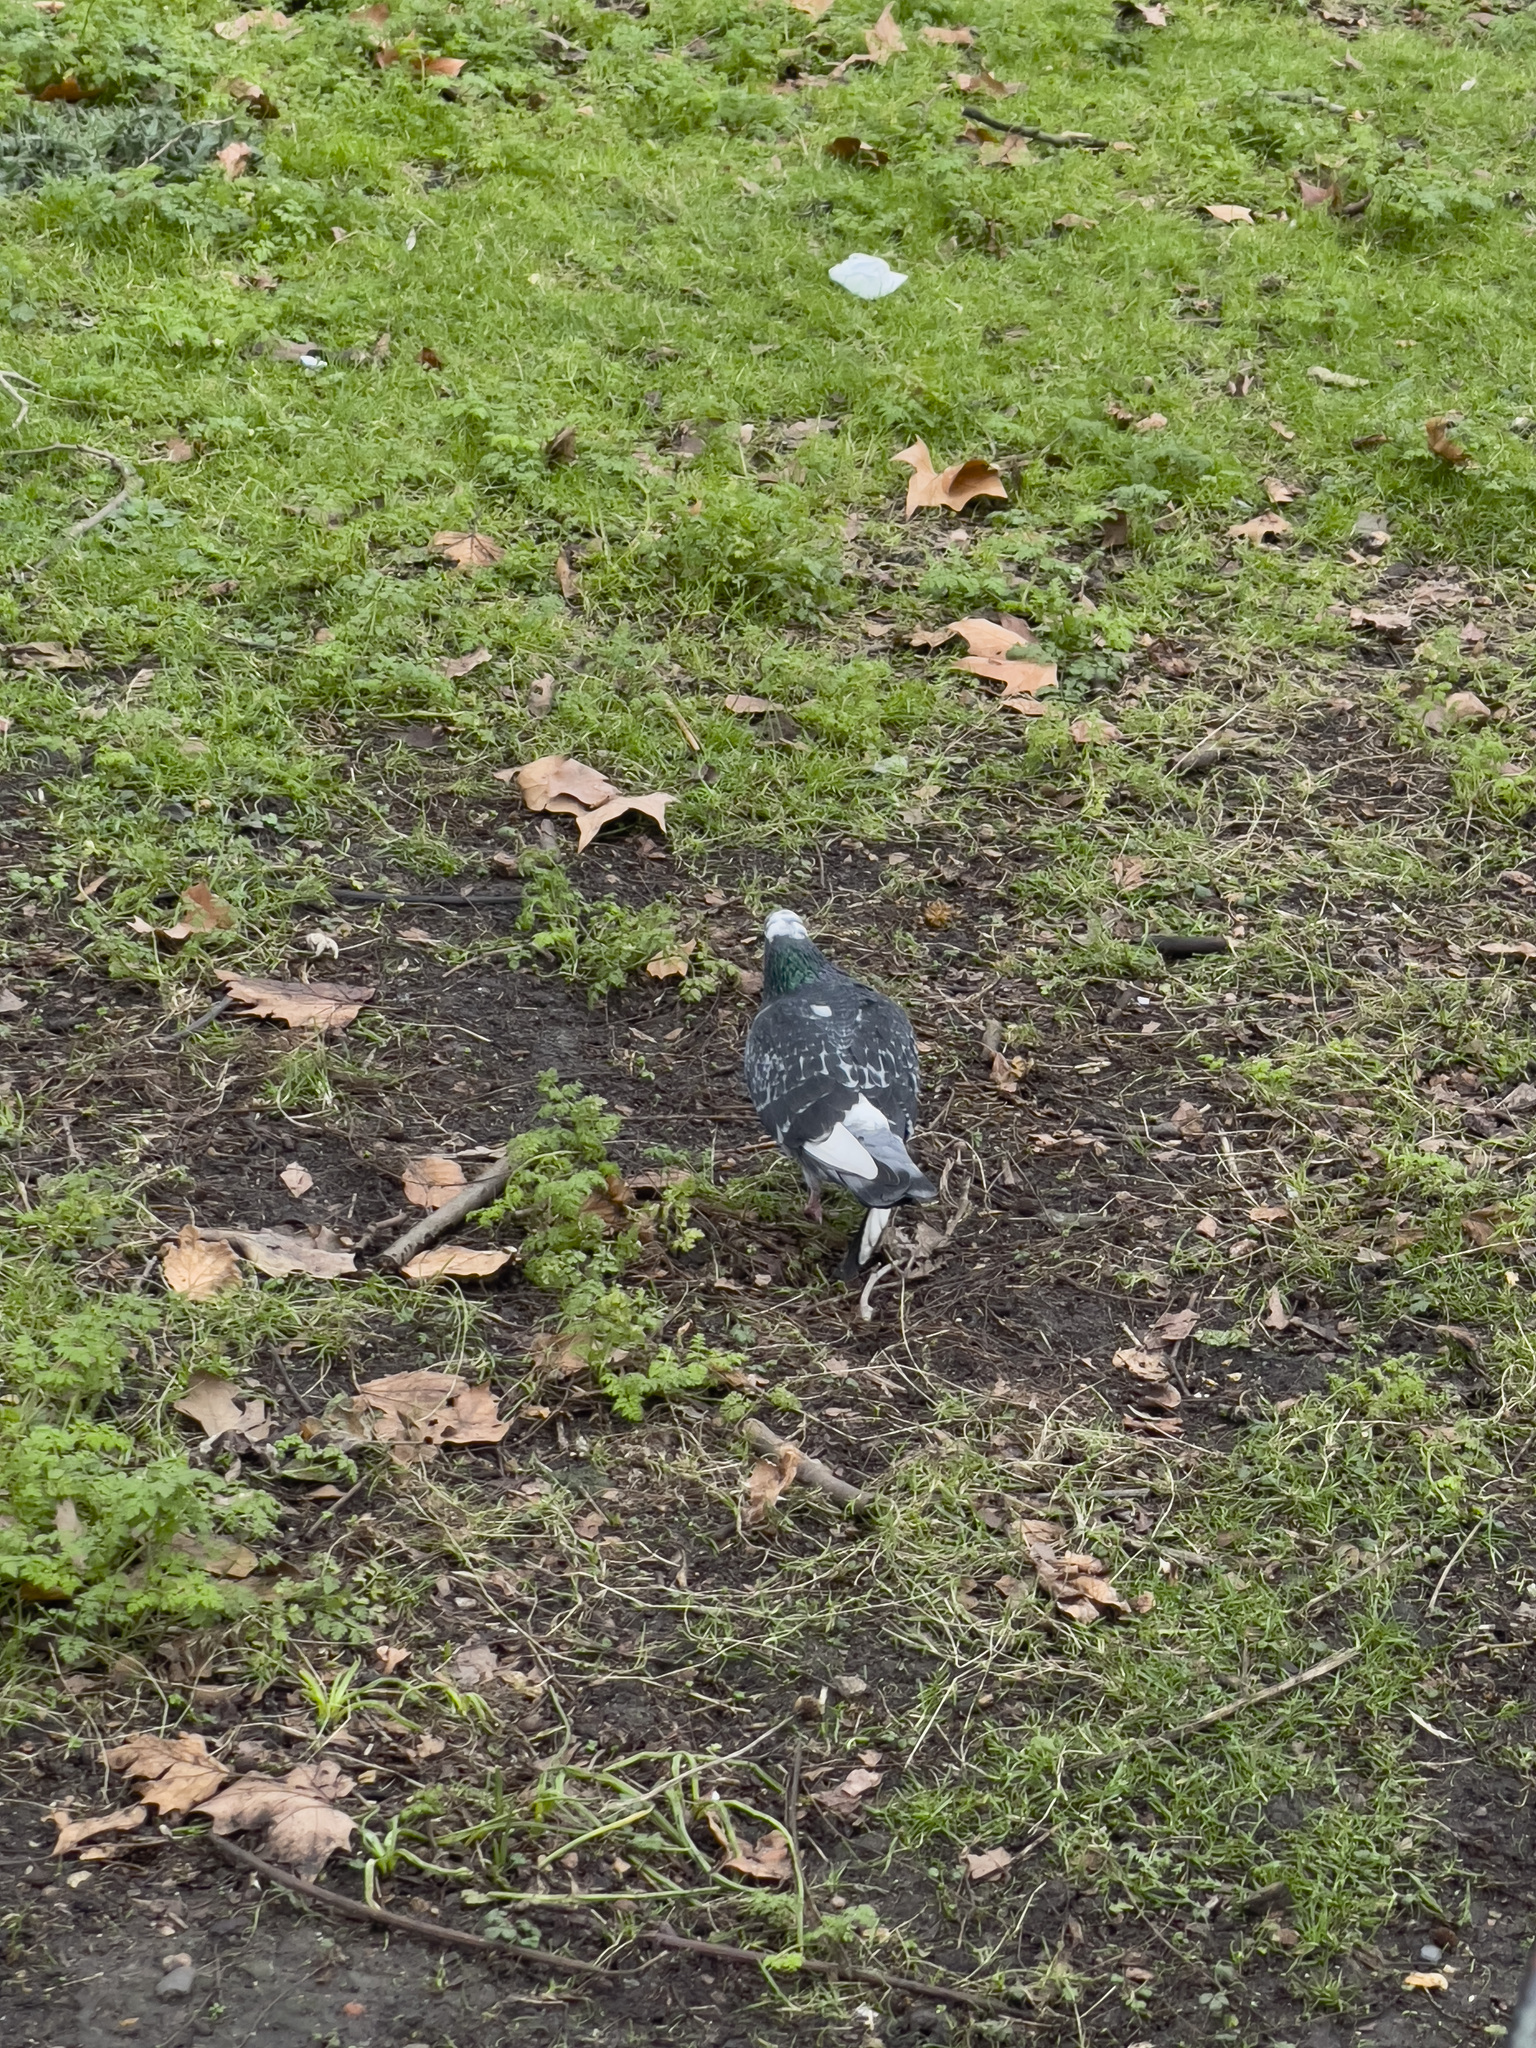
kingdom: Animalia
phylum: Chordata
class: Aves
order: Columbiformes
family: Columbidae
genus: Columba
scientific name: Columba livia
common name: Rock pigeon
